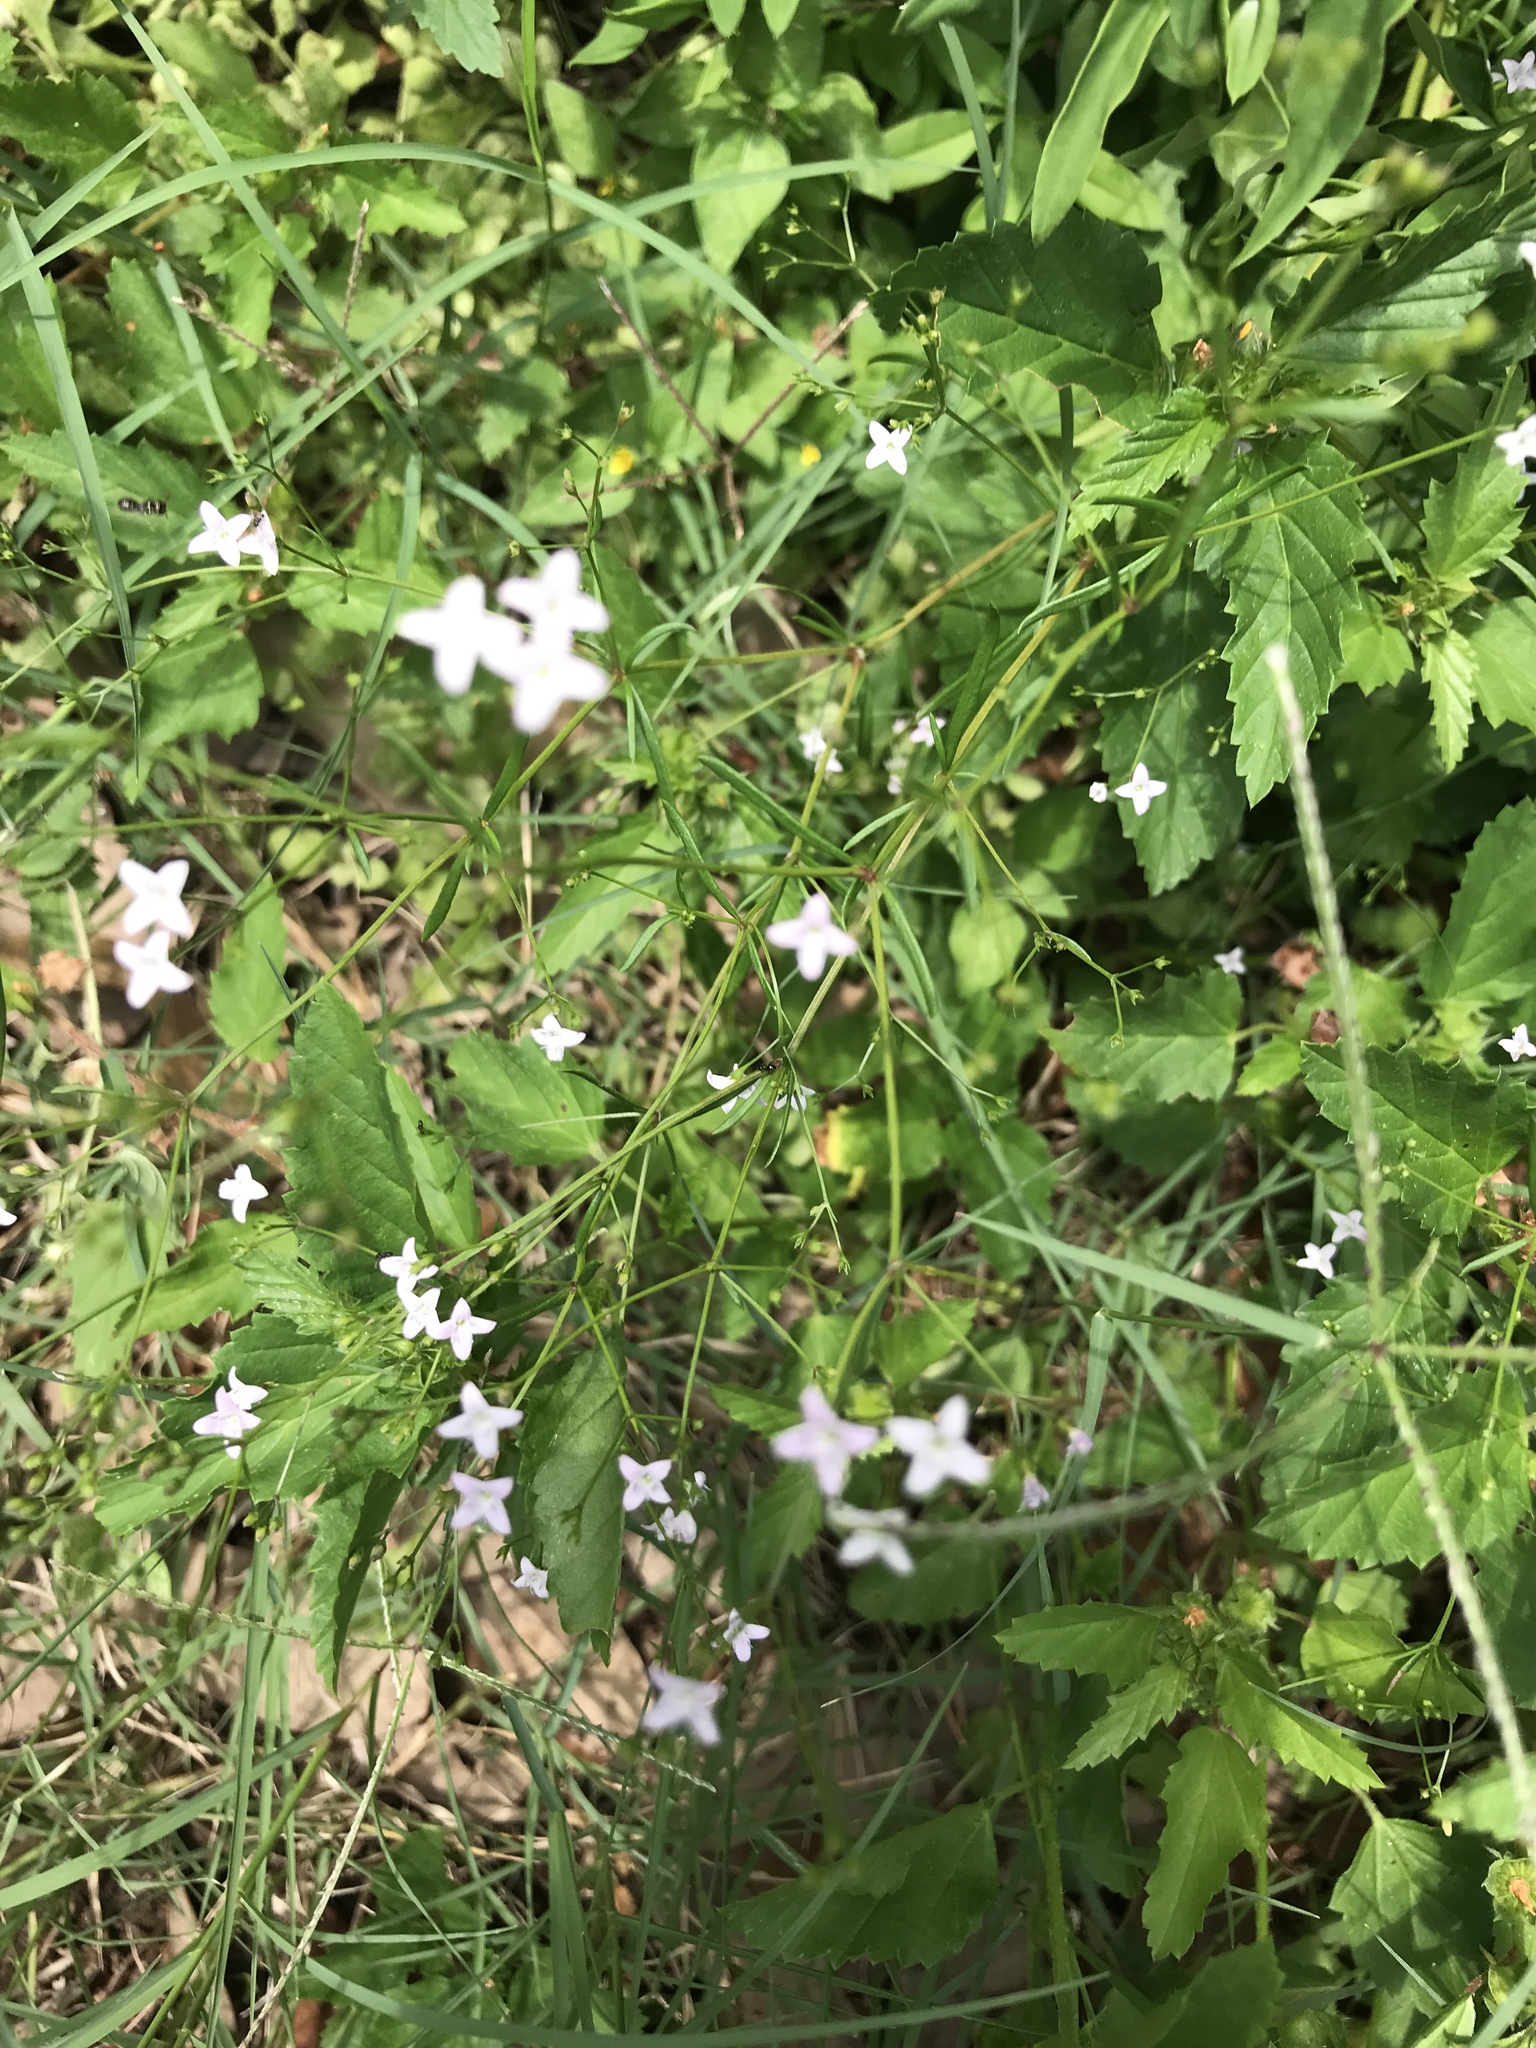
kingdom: Plantae
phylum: Tracheophyta
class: Magnoliopsida
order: Gentianales
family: Rubiaceae
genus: Stenaria
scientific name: Stenaria nigricans
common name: Diamondflowers
